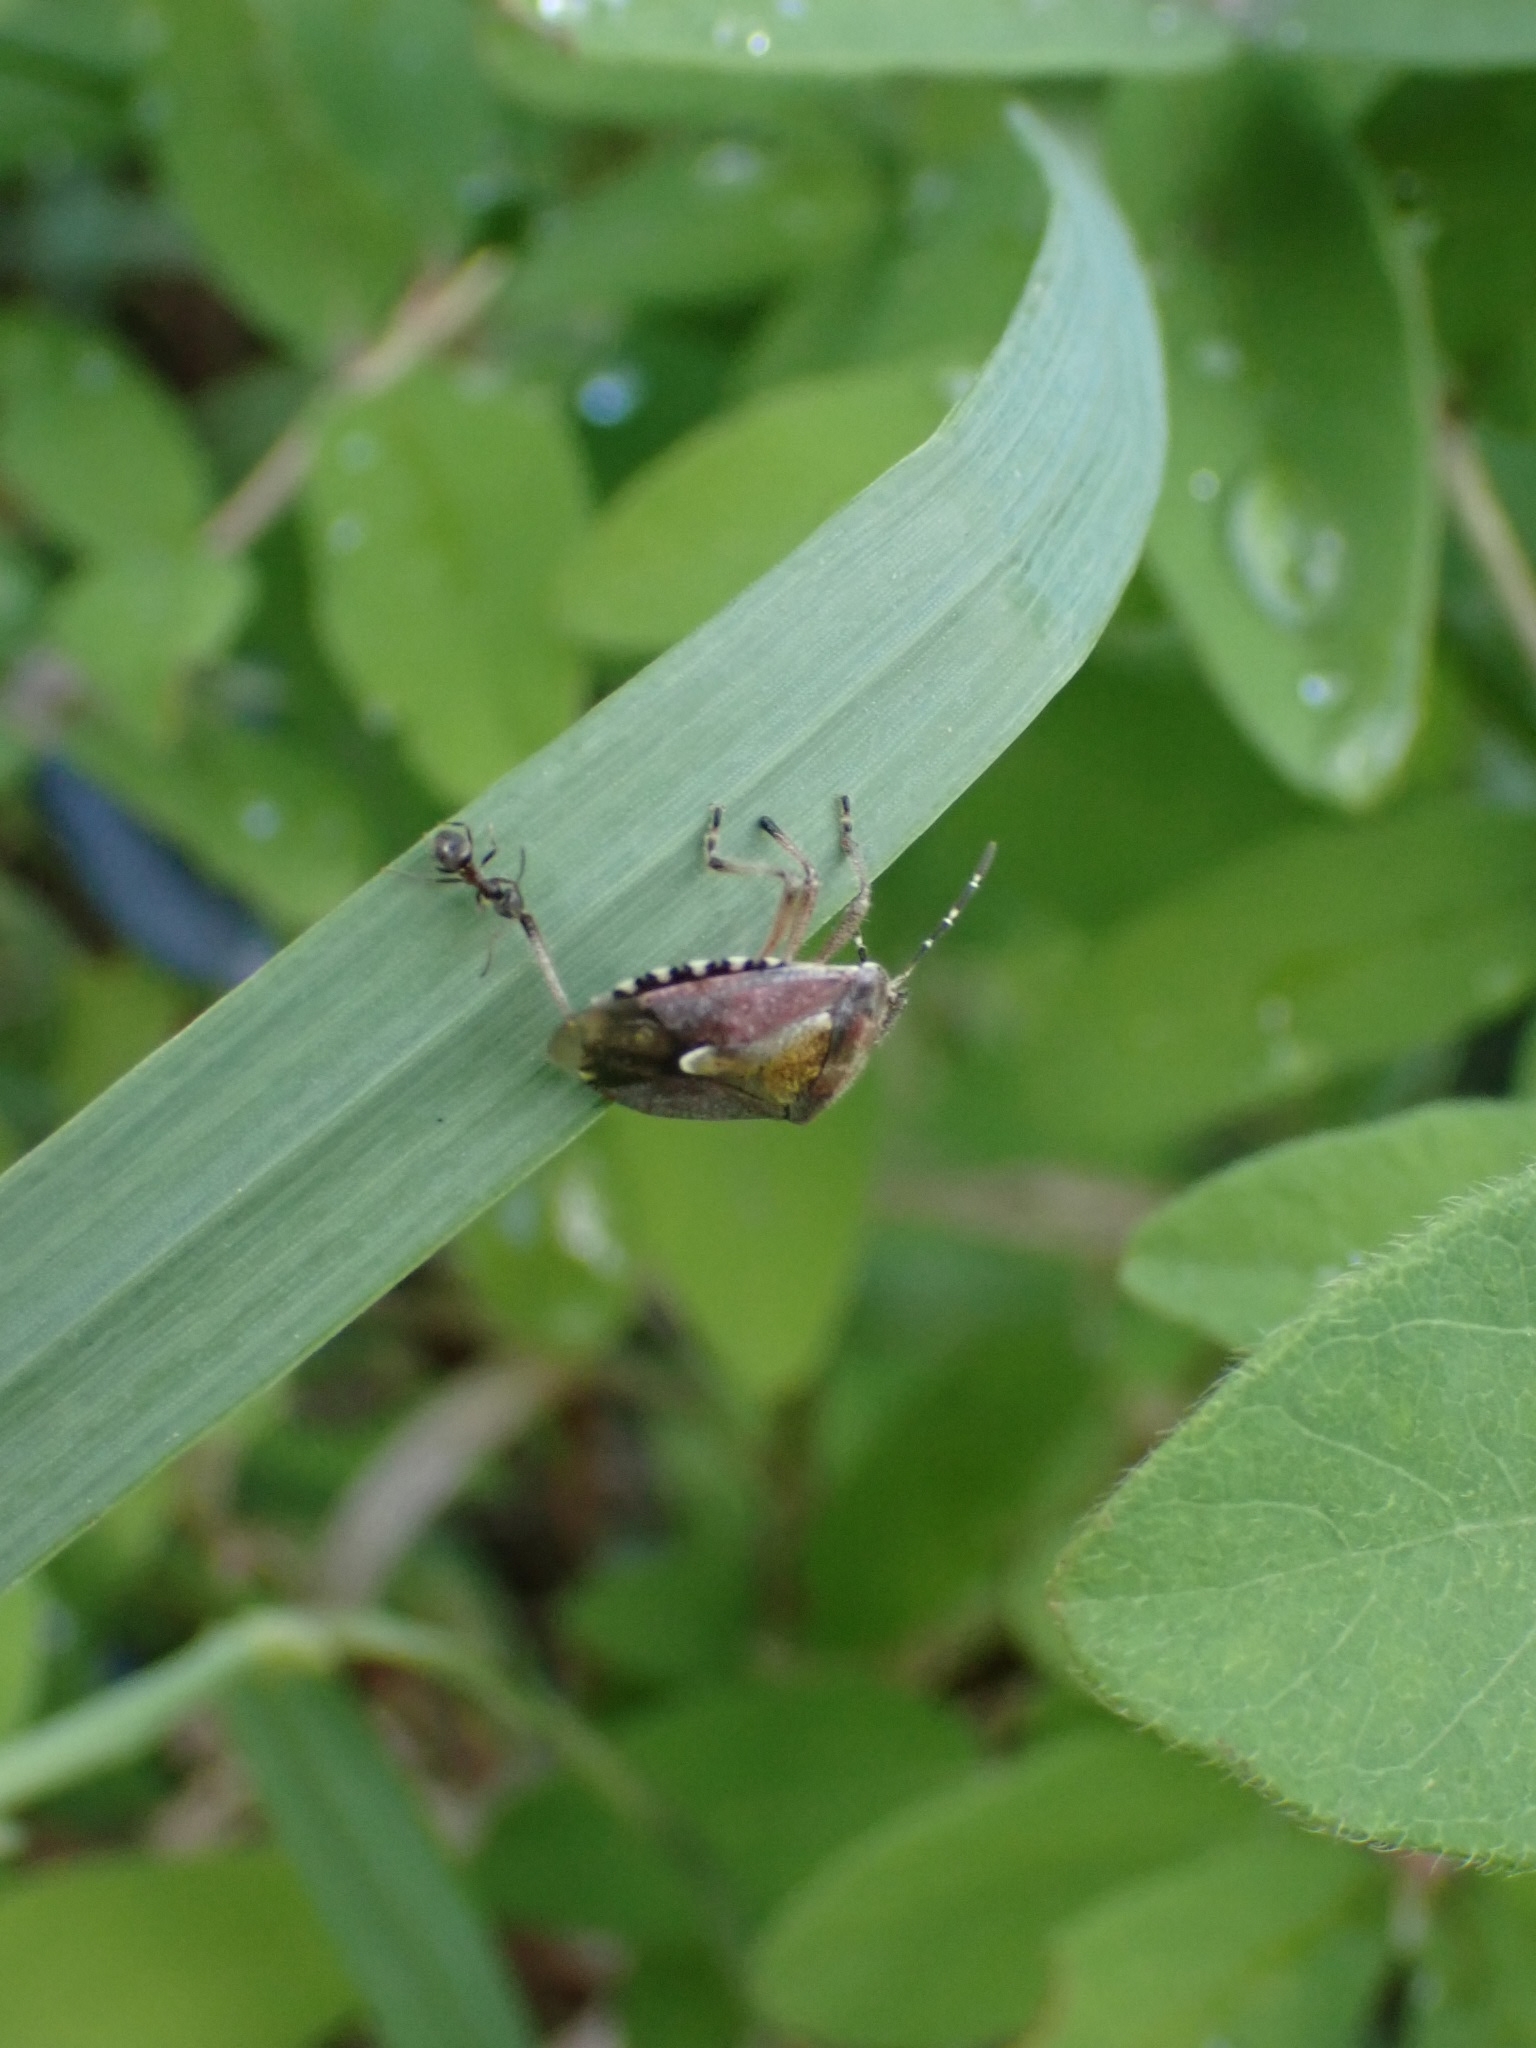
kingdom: Animalia
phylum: Arthropoda
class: Insecta
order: Hemiptera
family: Pentatomidae
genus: Dolycoris
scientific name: Dolycoris baccarum
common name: Sloe bug
